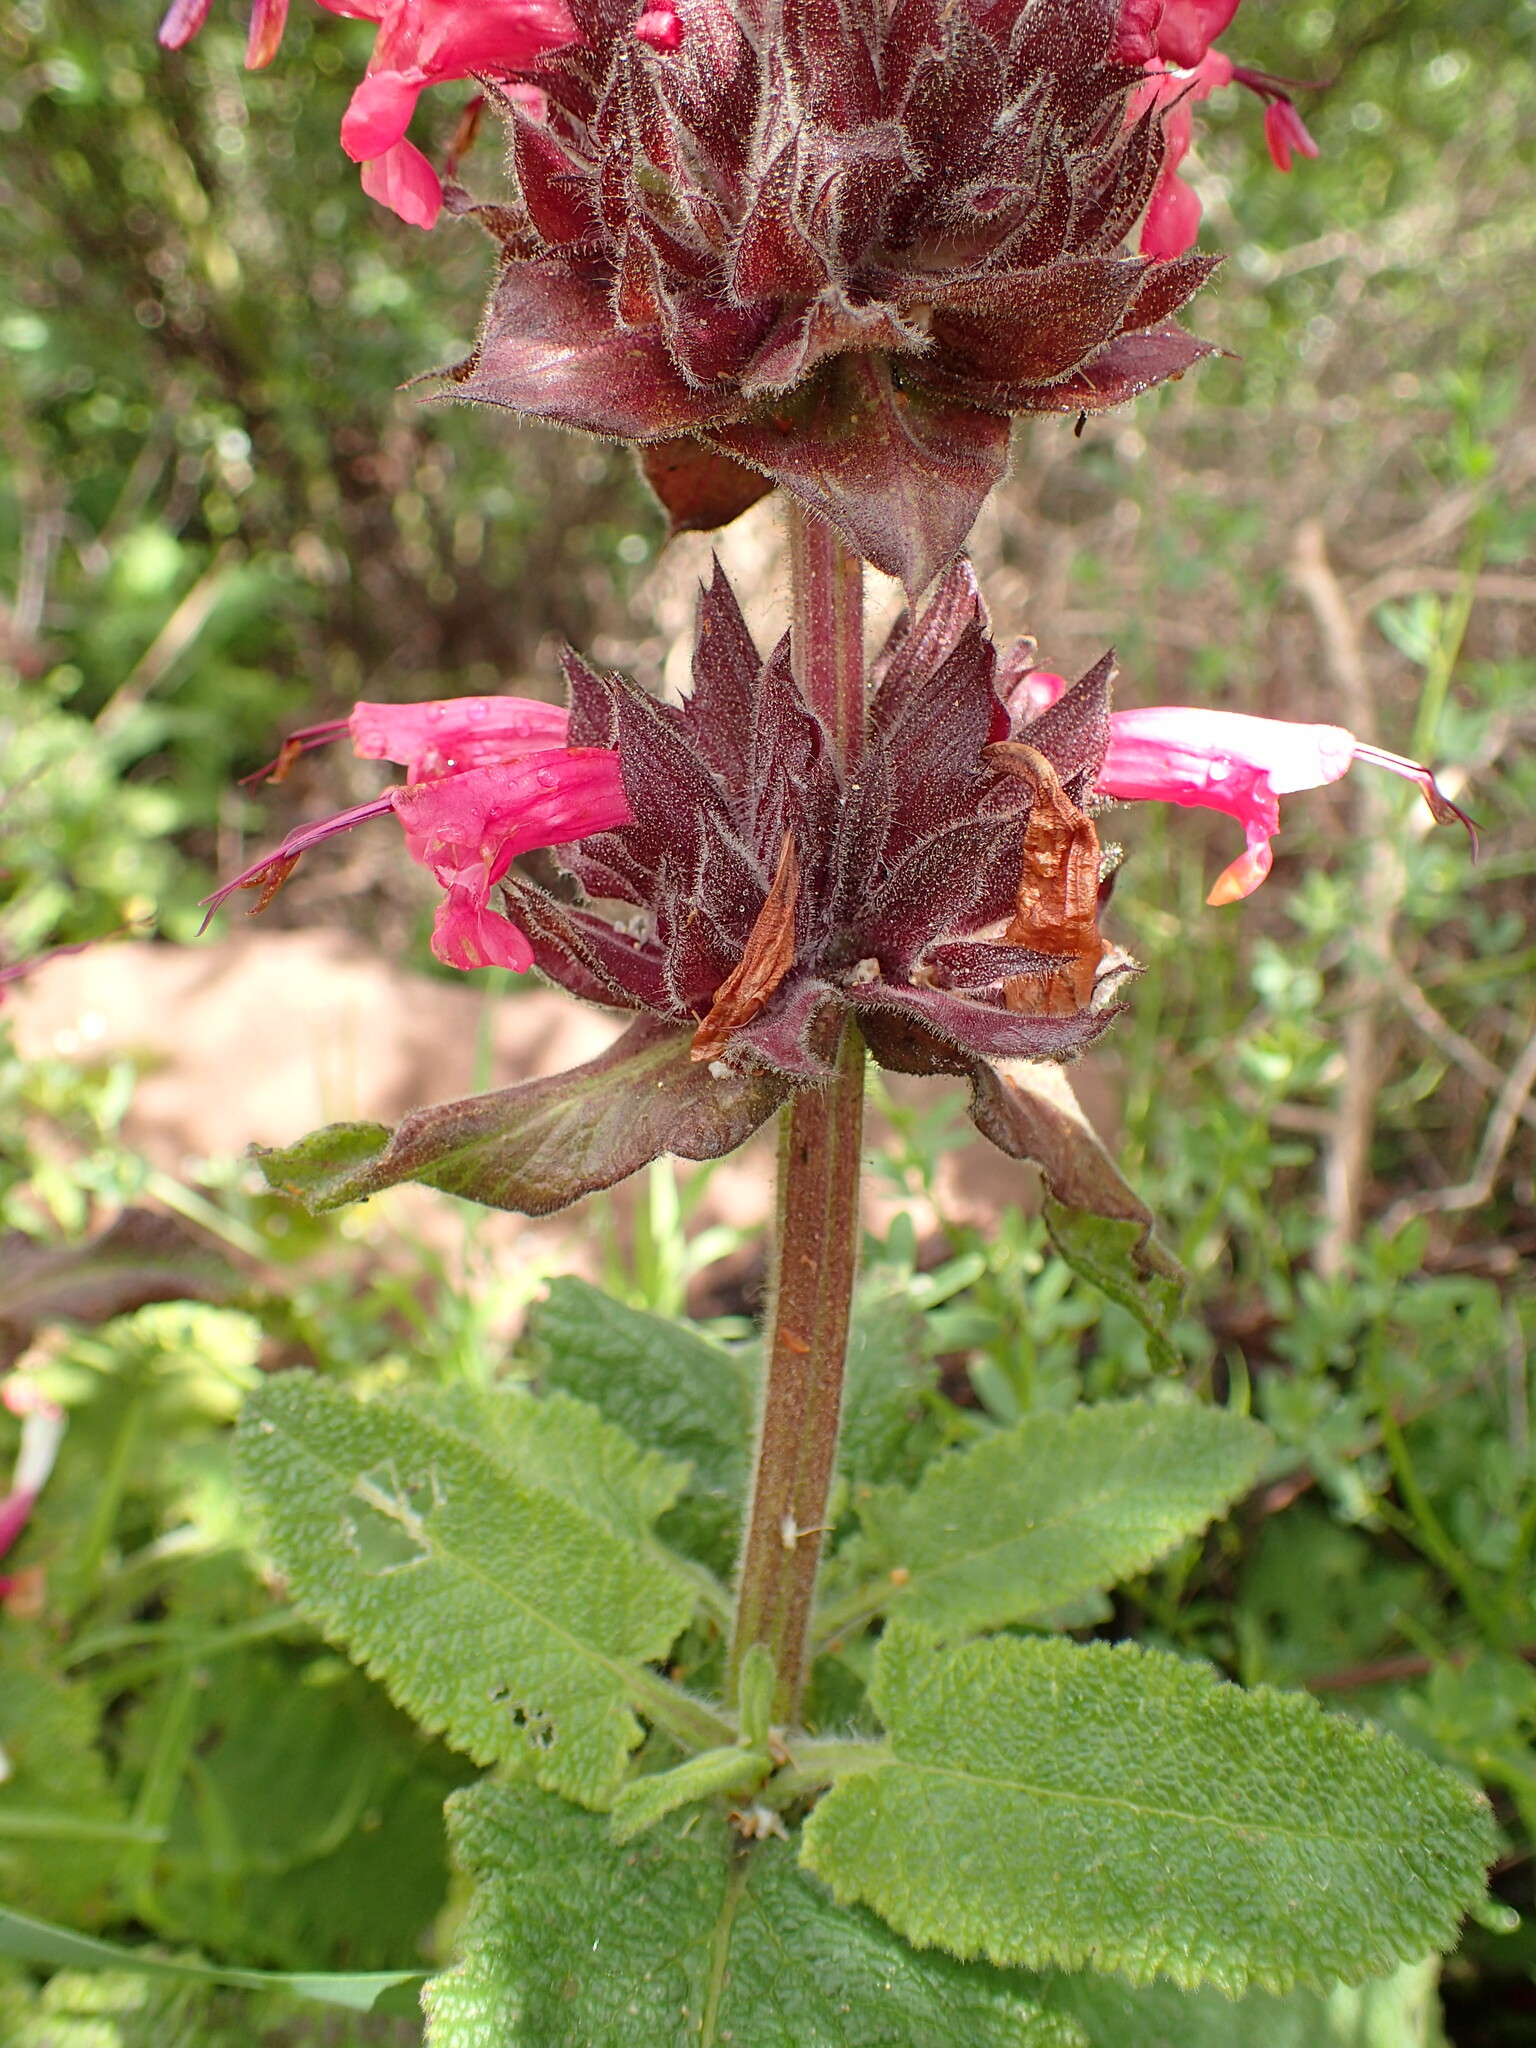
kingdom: Plantae
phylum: Tracheophyta
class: Magnoliopsida
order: Lamiales
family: Lamiaceae
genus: Salvia
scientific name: Salvia spathacea
